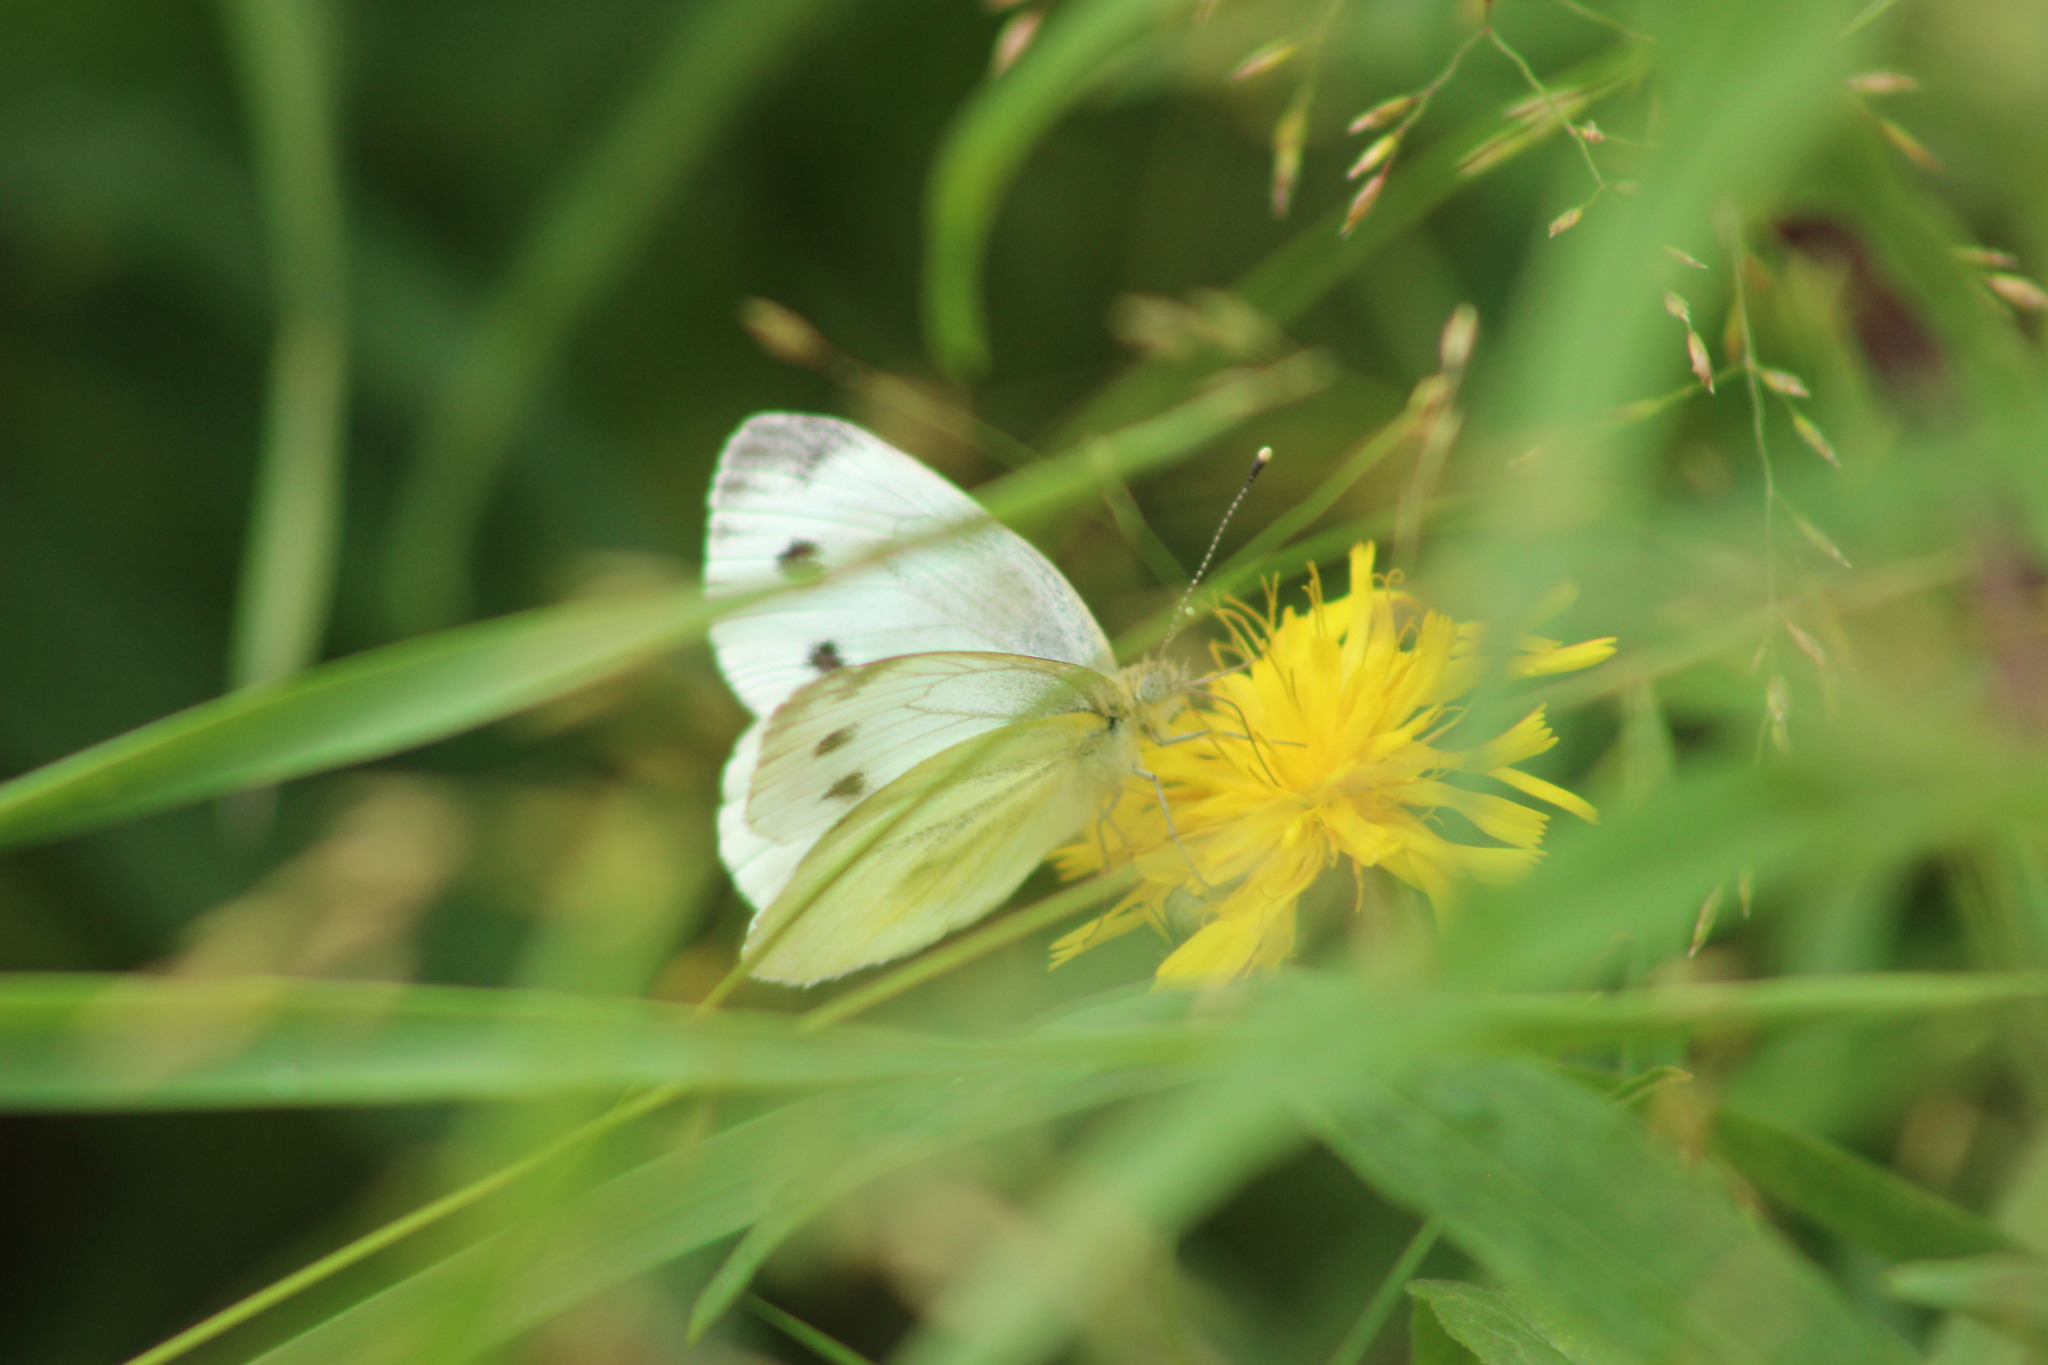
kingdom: Animalia
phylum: Arthropoda
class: Insecta
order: Lepidoptera
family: Pieridae
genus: Pieris
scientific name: Pieris napi
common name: Green-veined white
